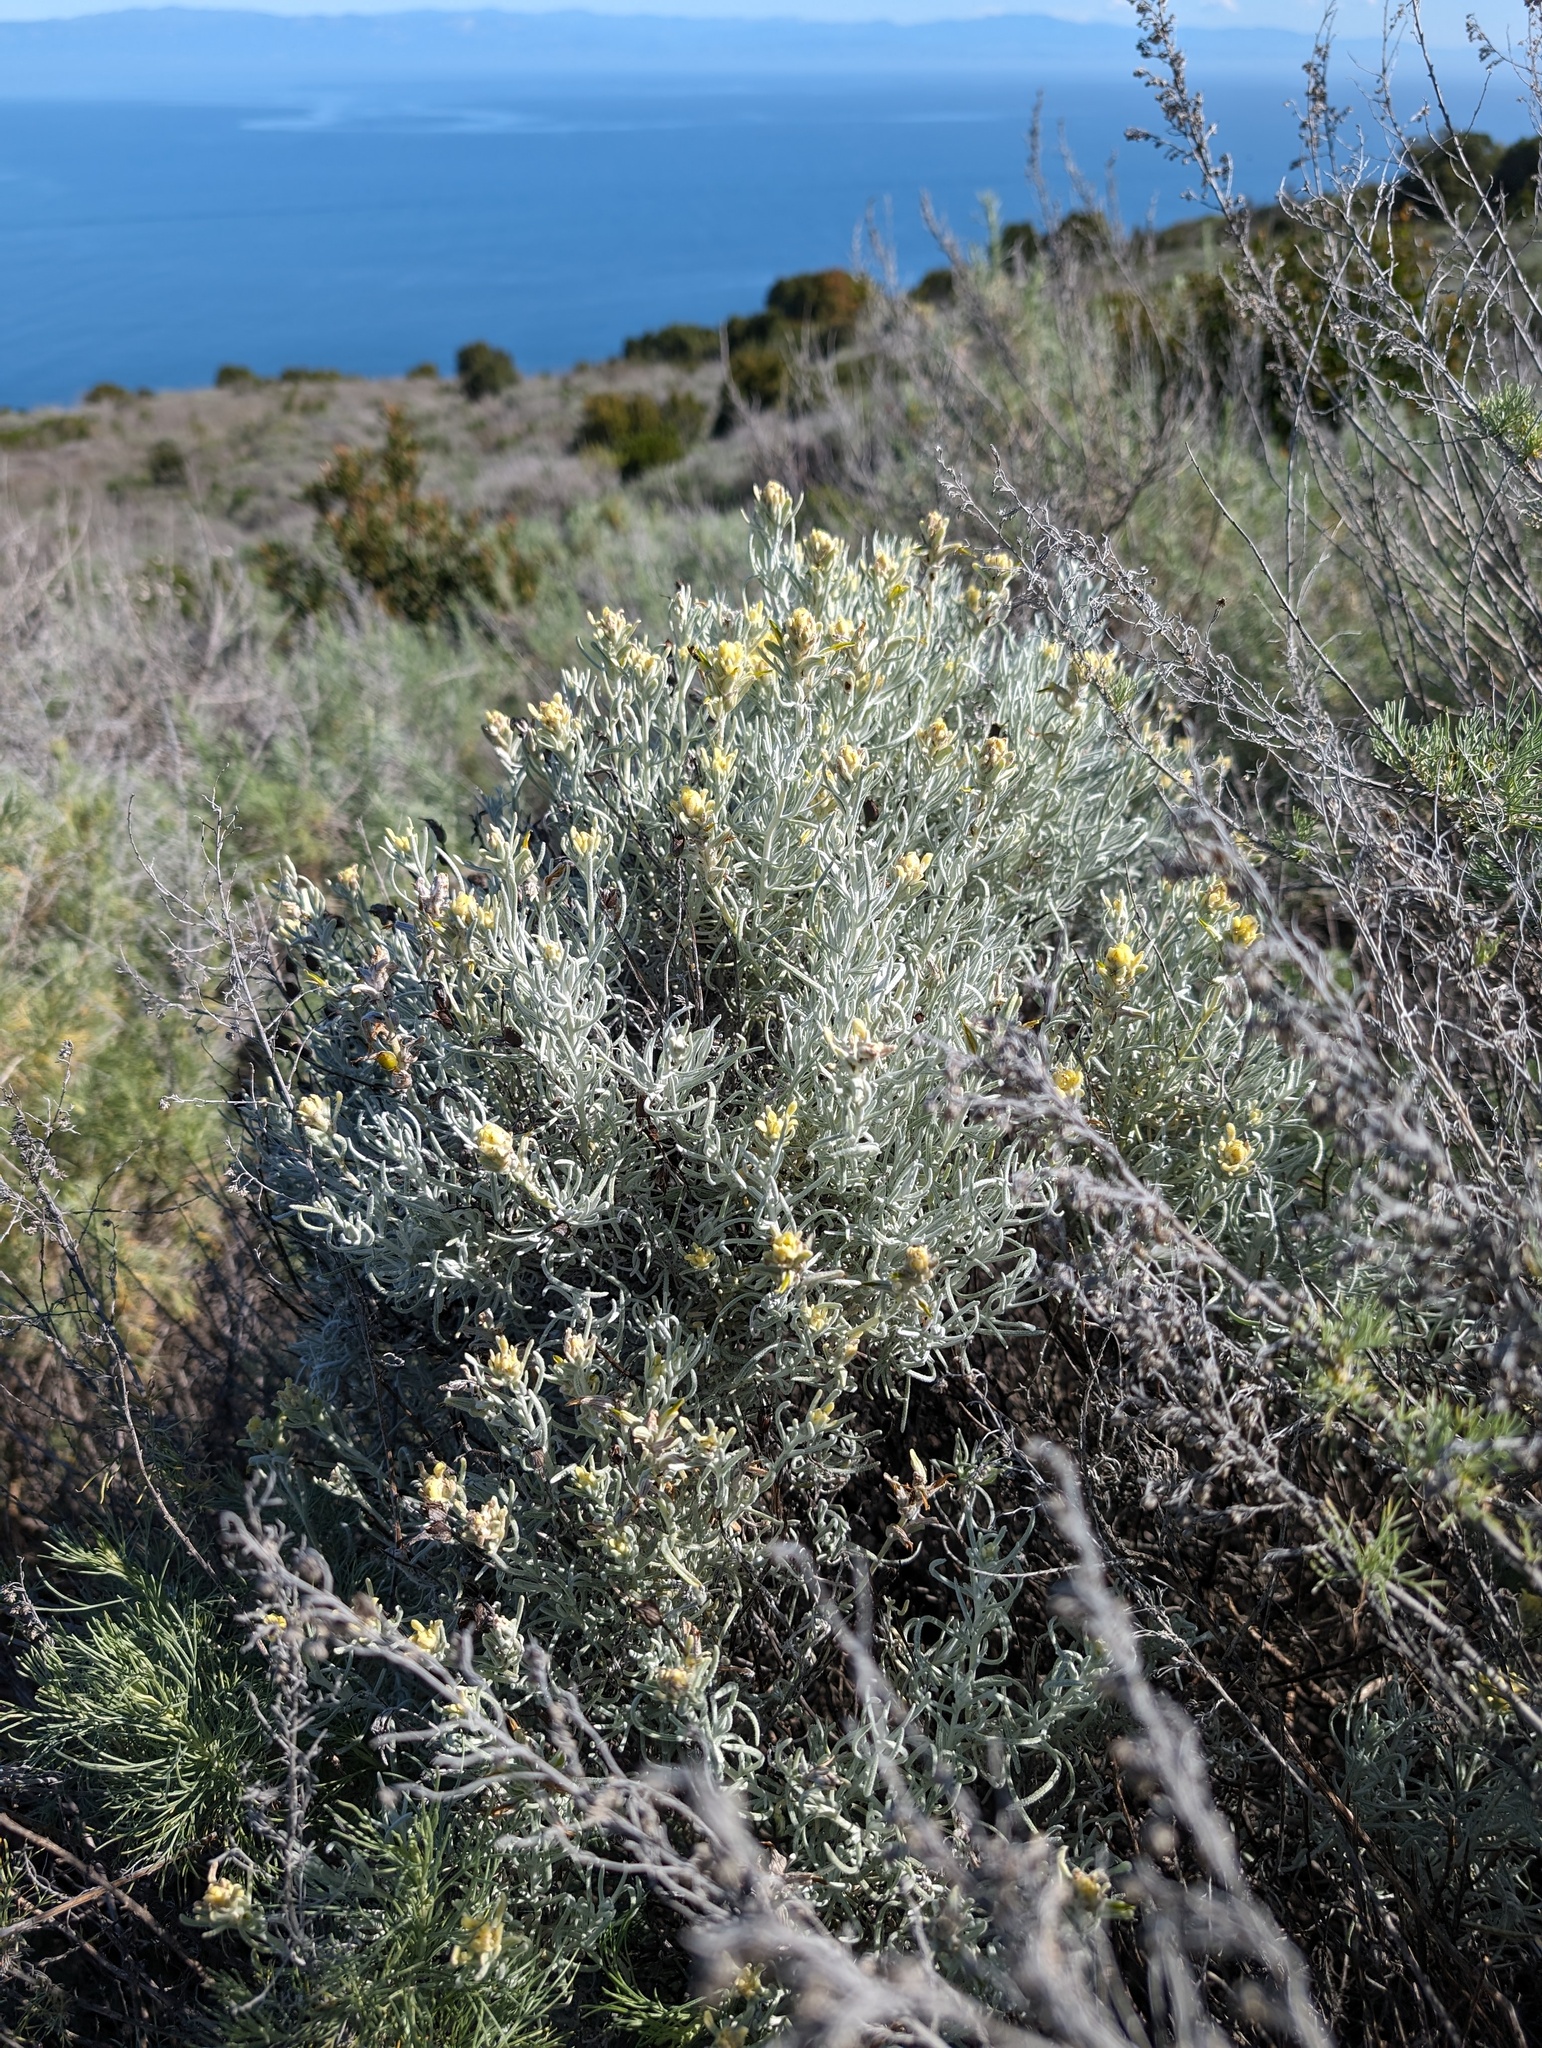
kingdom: Plantae
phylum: Tracheophyta
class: Magnoliopsida
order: Lamiales
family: Orobanchaceae
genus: Castilleja
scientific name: Castilleja hololeuca
